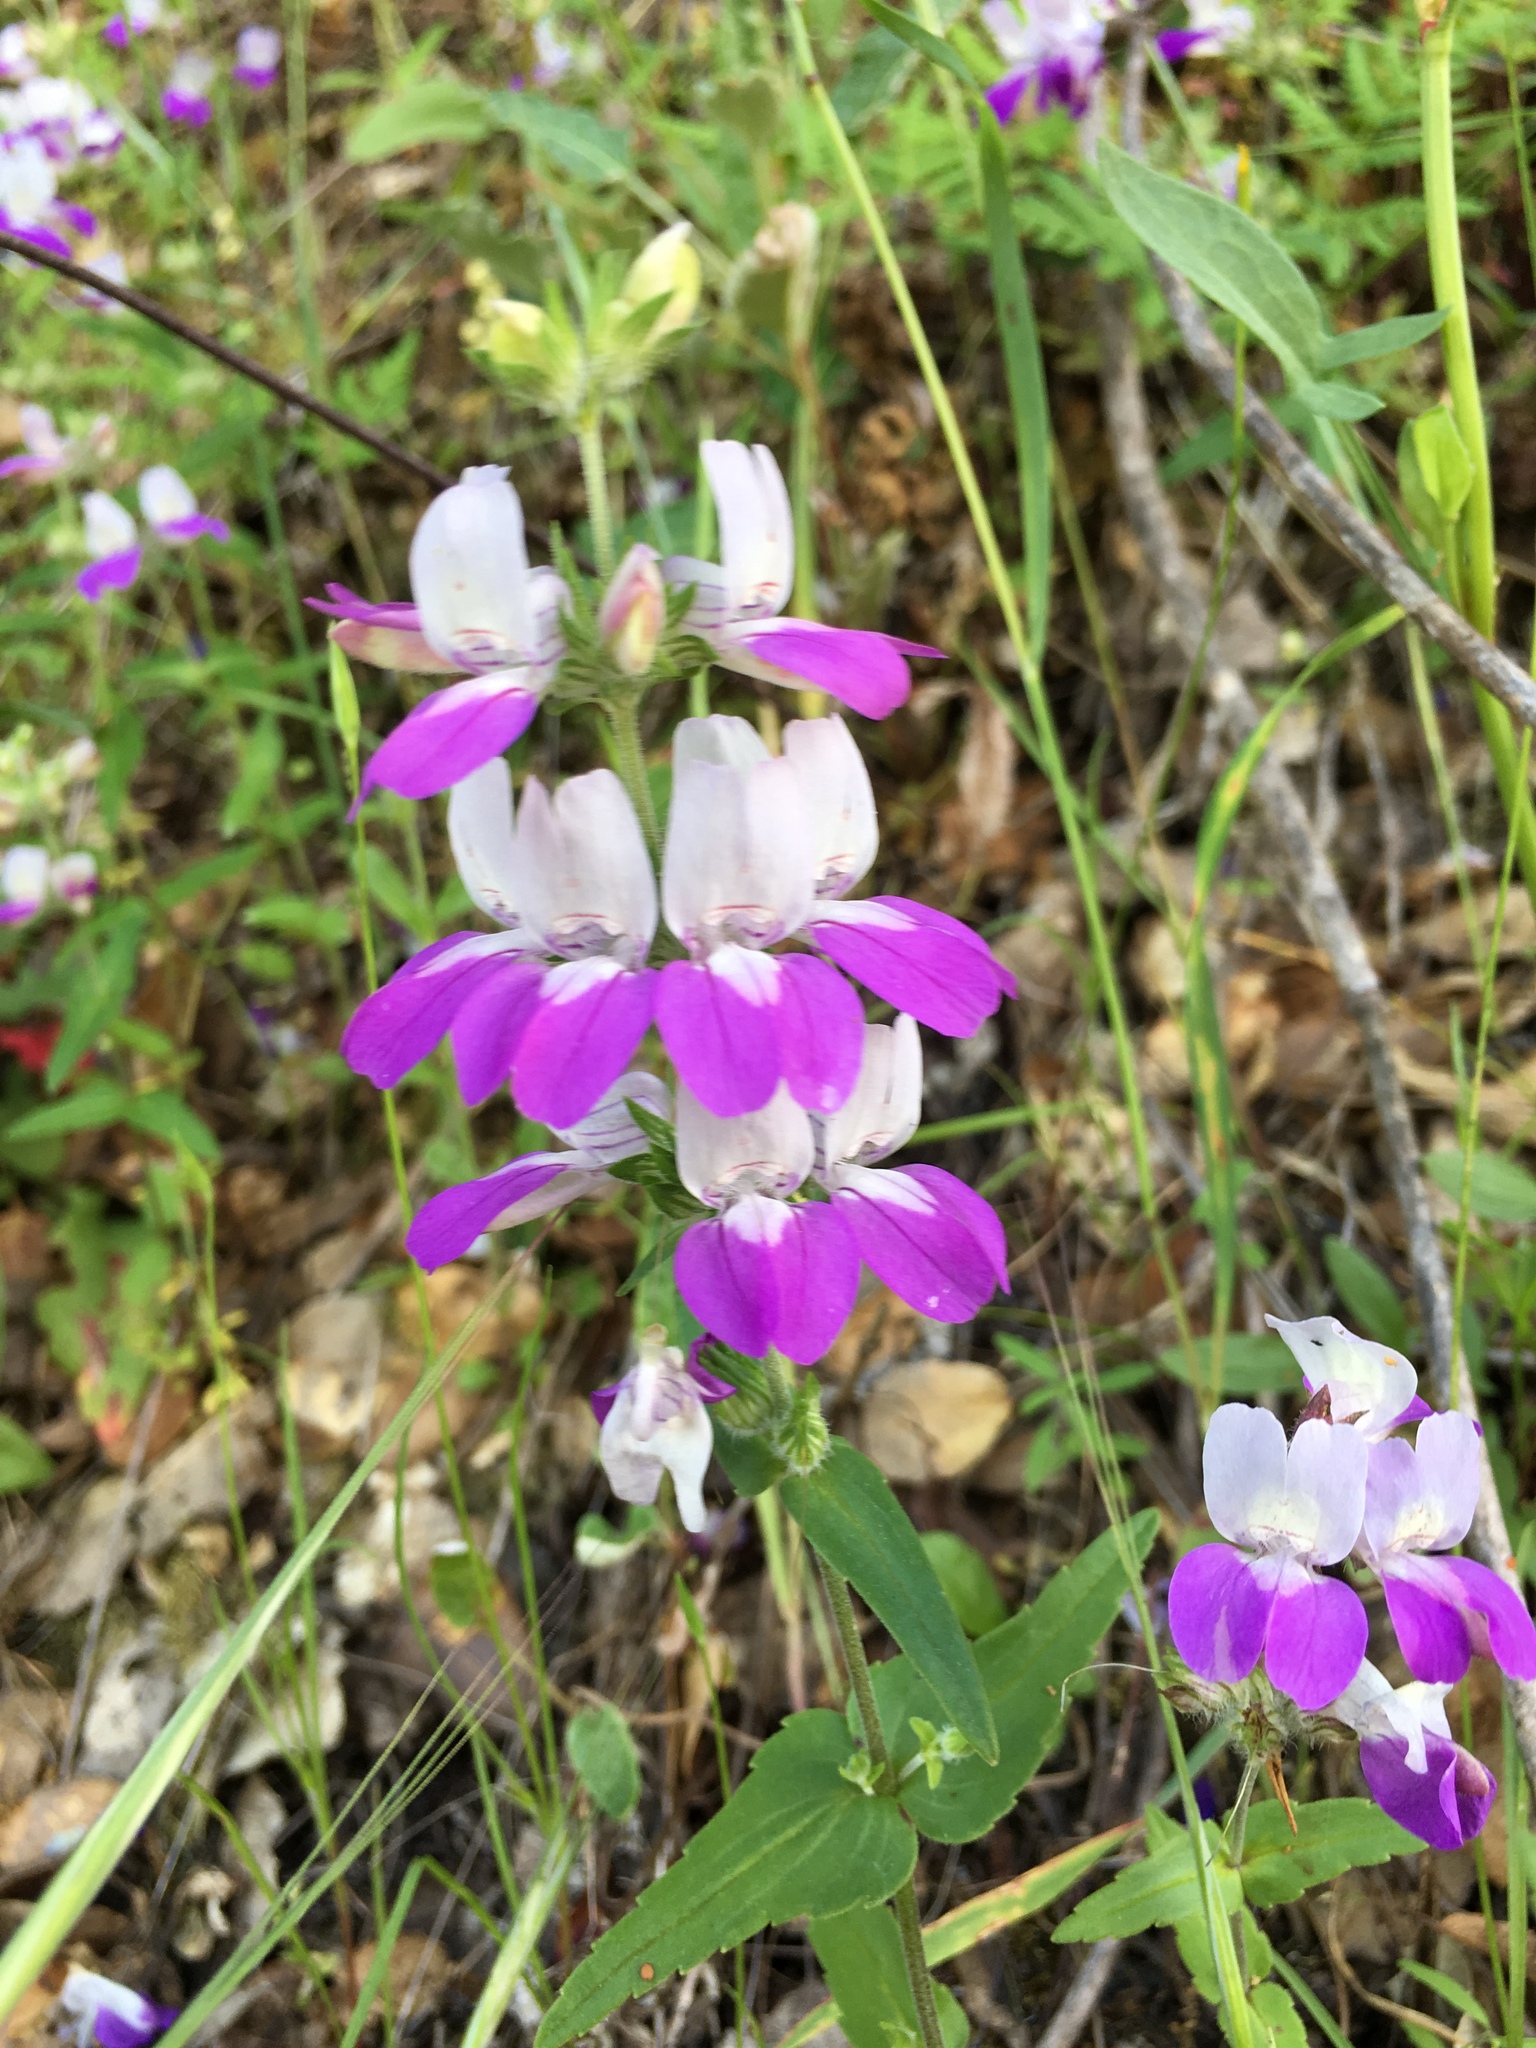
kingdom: Plantae
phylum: Tracheophyta
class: Magnoliopsida
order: Lamiales
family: Plantaginaceae
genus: Collinsia
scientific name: Collinsia heterophylla
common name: Chinese-houses
